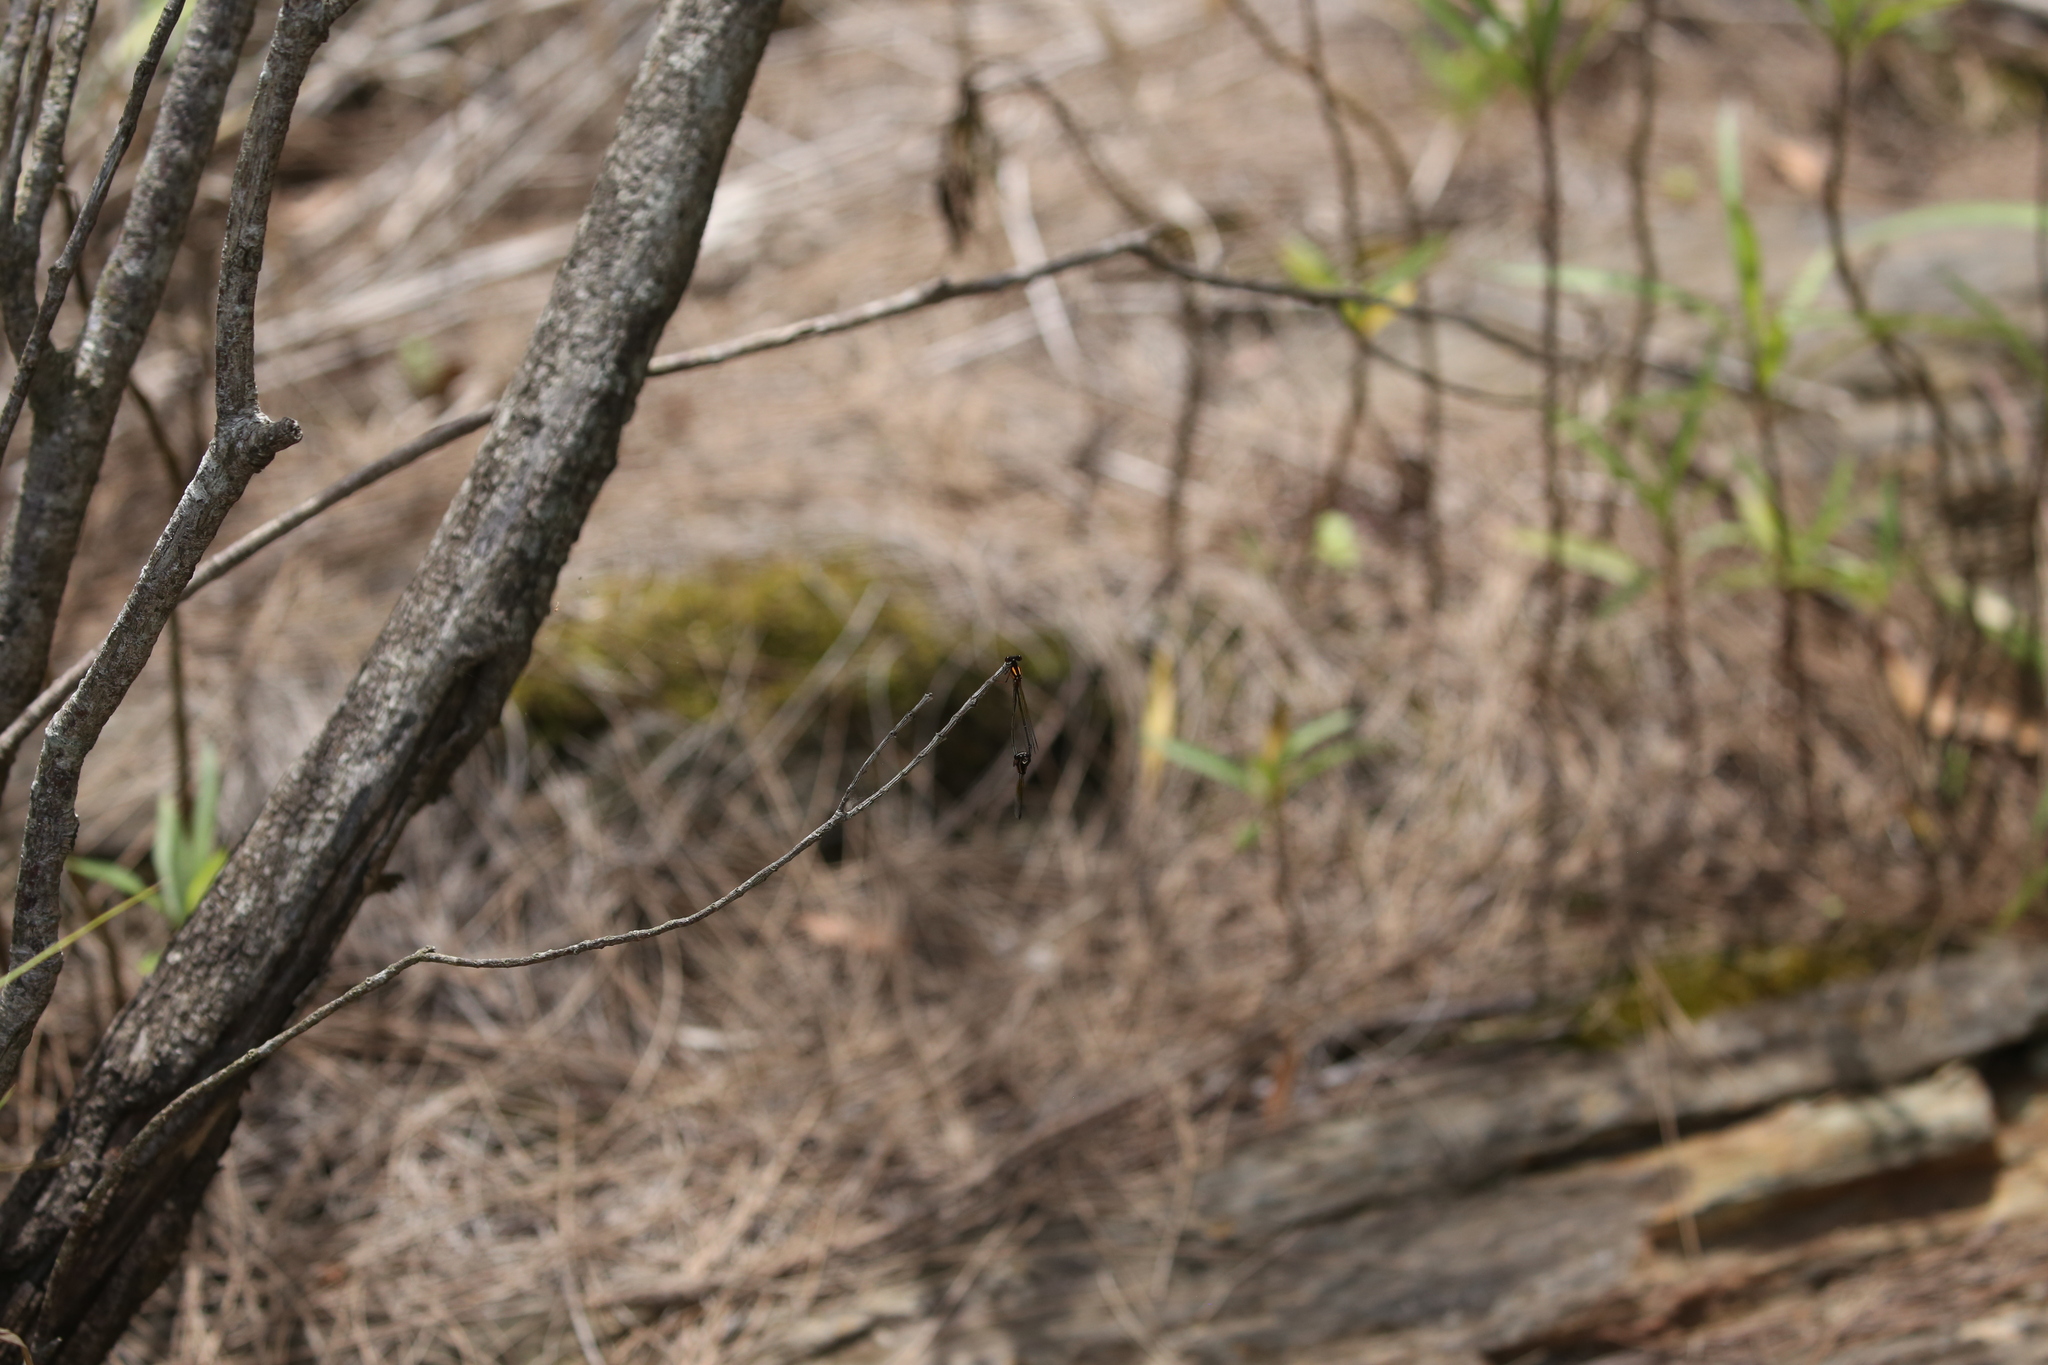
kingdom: Animalia
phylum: Arthropoda
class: Insecta
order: Odonata
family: Platycnemididae
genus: Nososticta
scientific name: Nososticta solida
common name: Orange threadtail
